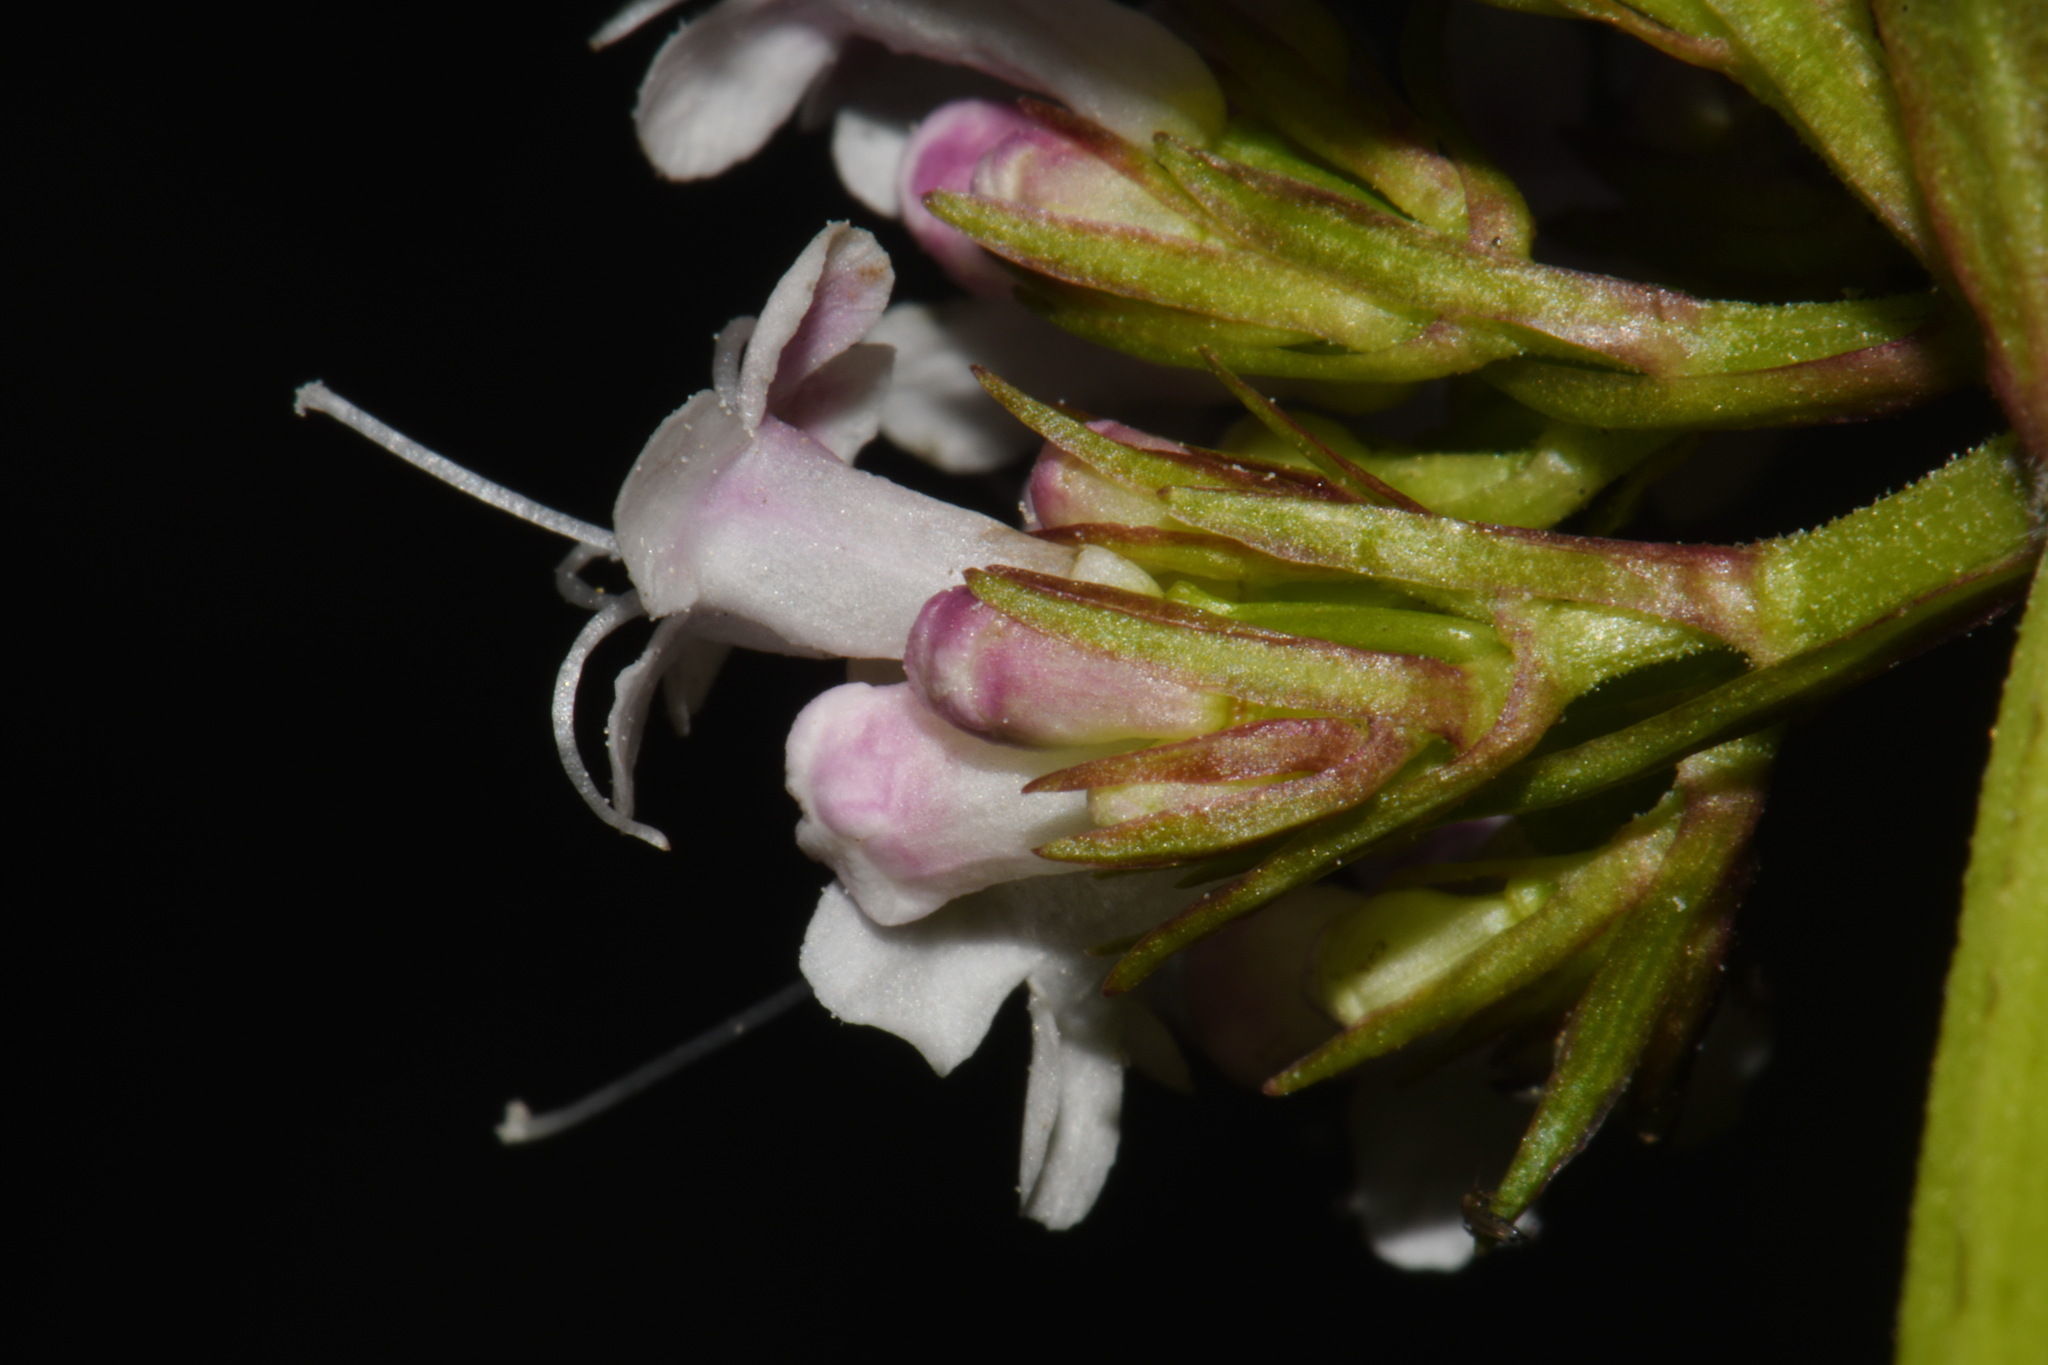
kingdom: Plantae
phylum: Tracheophyta
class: Magnoliopsida
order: Dipsacales
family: Caprifoliaceae
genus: Valeriana
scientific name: Valeriana scouleri
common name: Scouler's valerian
